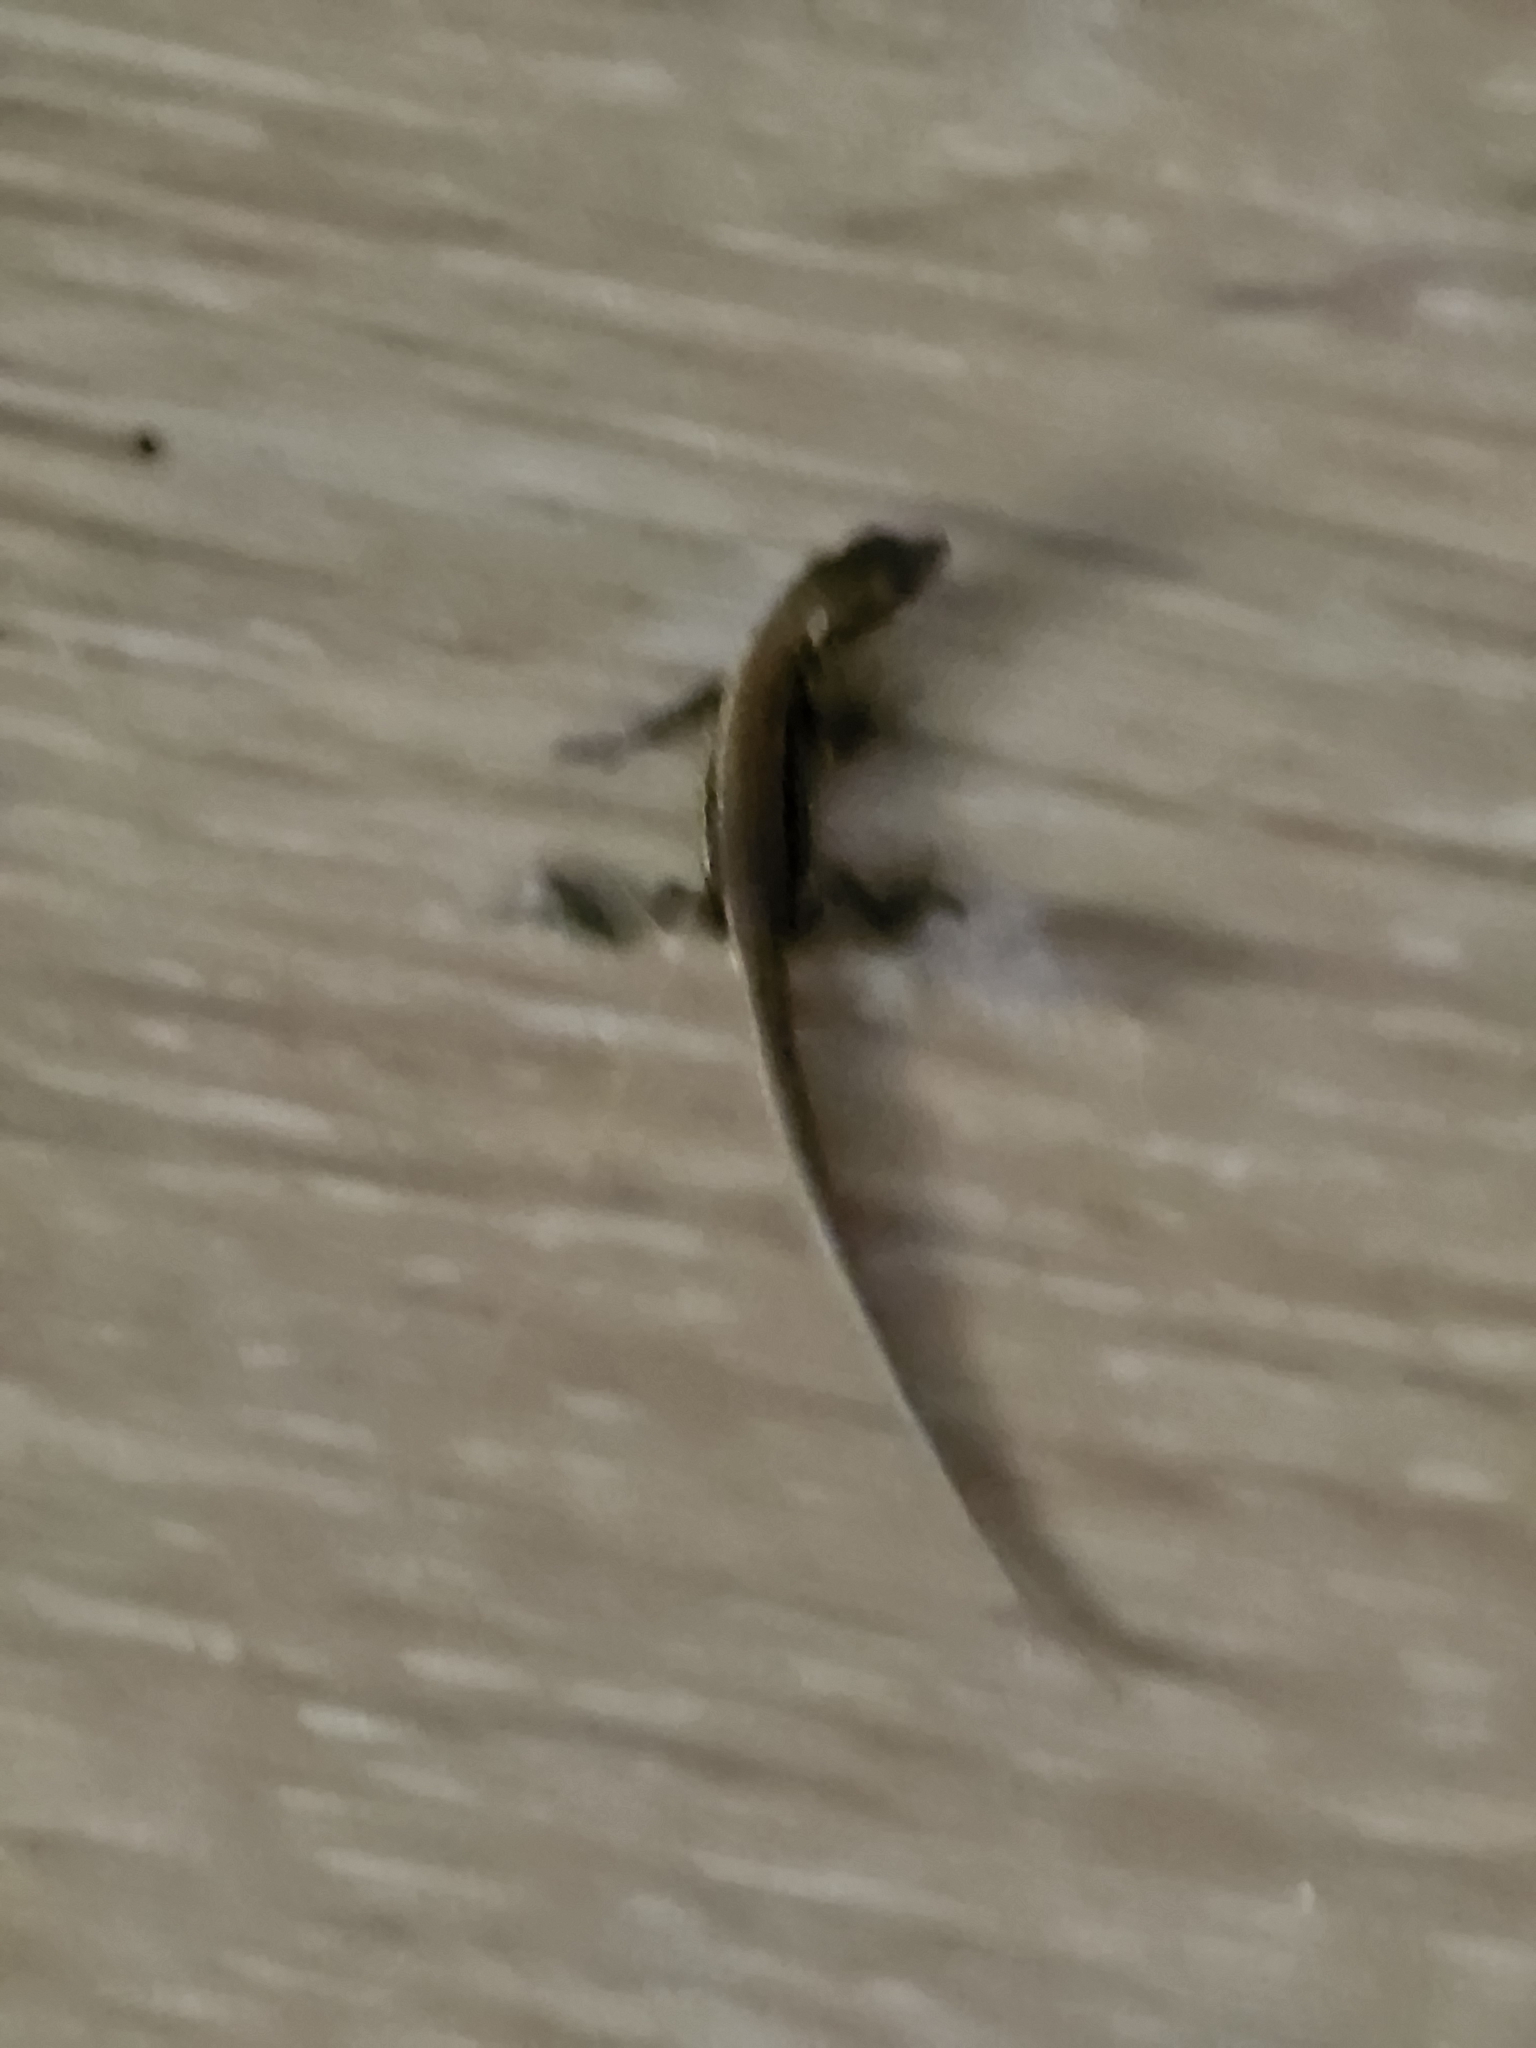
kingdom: Animalia
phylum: Chordata
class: Squamata
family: Lacertidae
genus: Podarcis
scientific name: Podarcis muralis
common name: Common wall lizard
